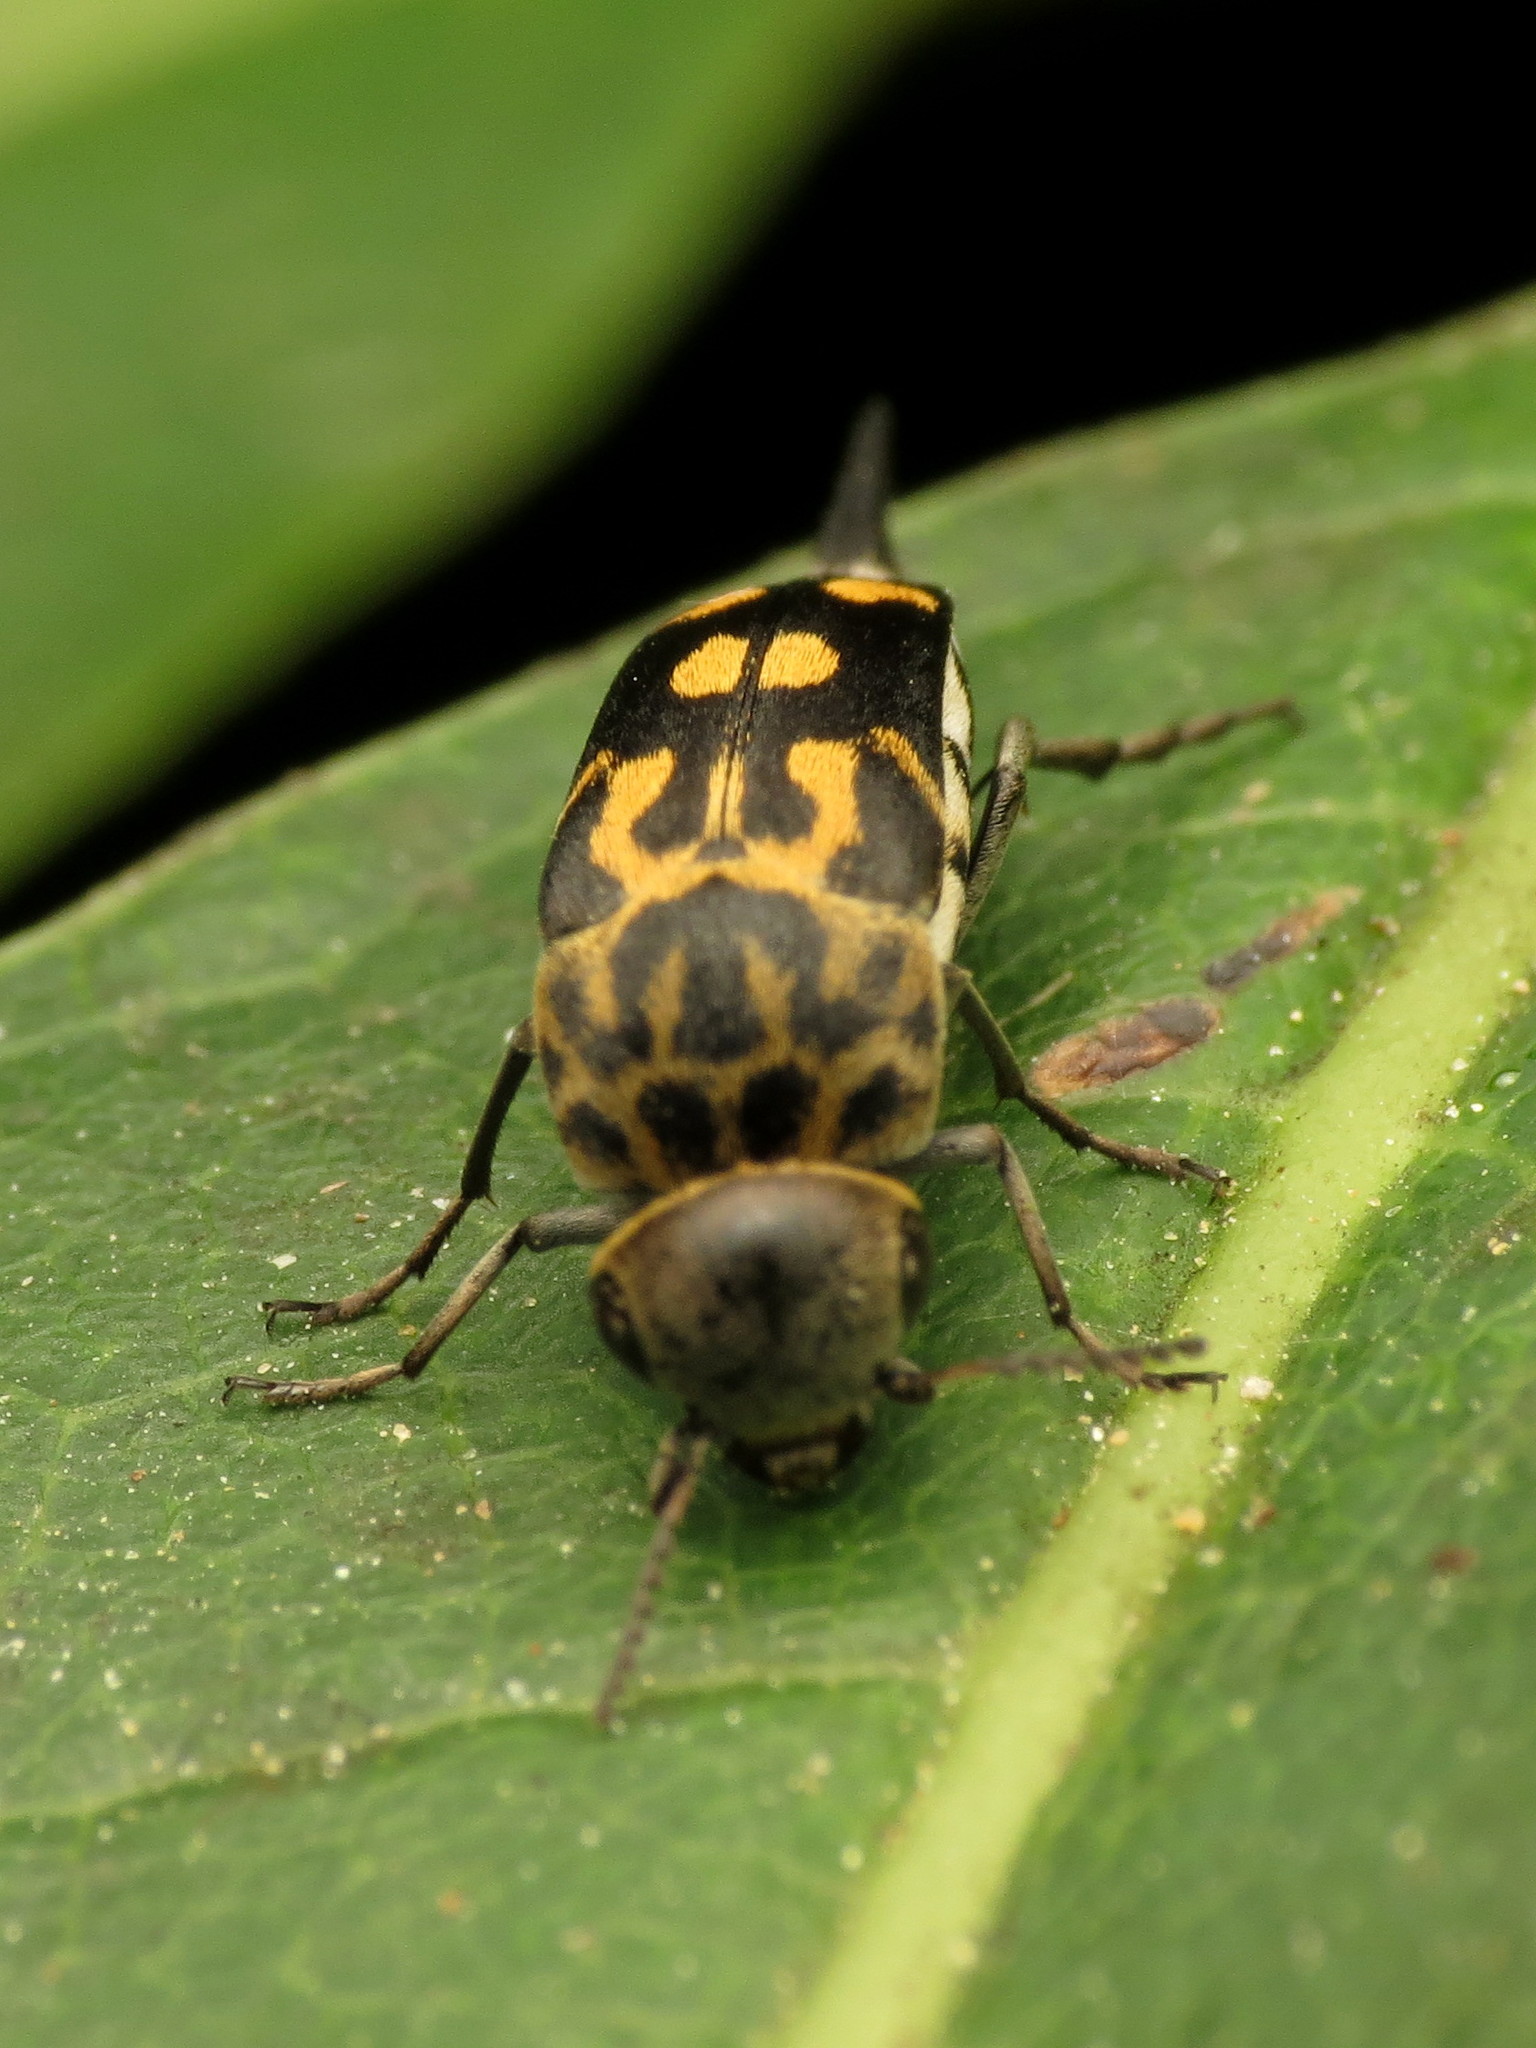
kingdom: Animalia
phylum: Arthropoda
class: Insecta
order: Coleoptera
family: Mordellidae
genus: Hoshihananomia
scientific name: Hoshihananomia octopunctata
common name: Eight-spotted tumbling flower beetle
